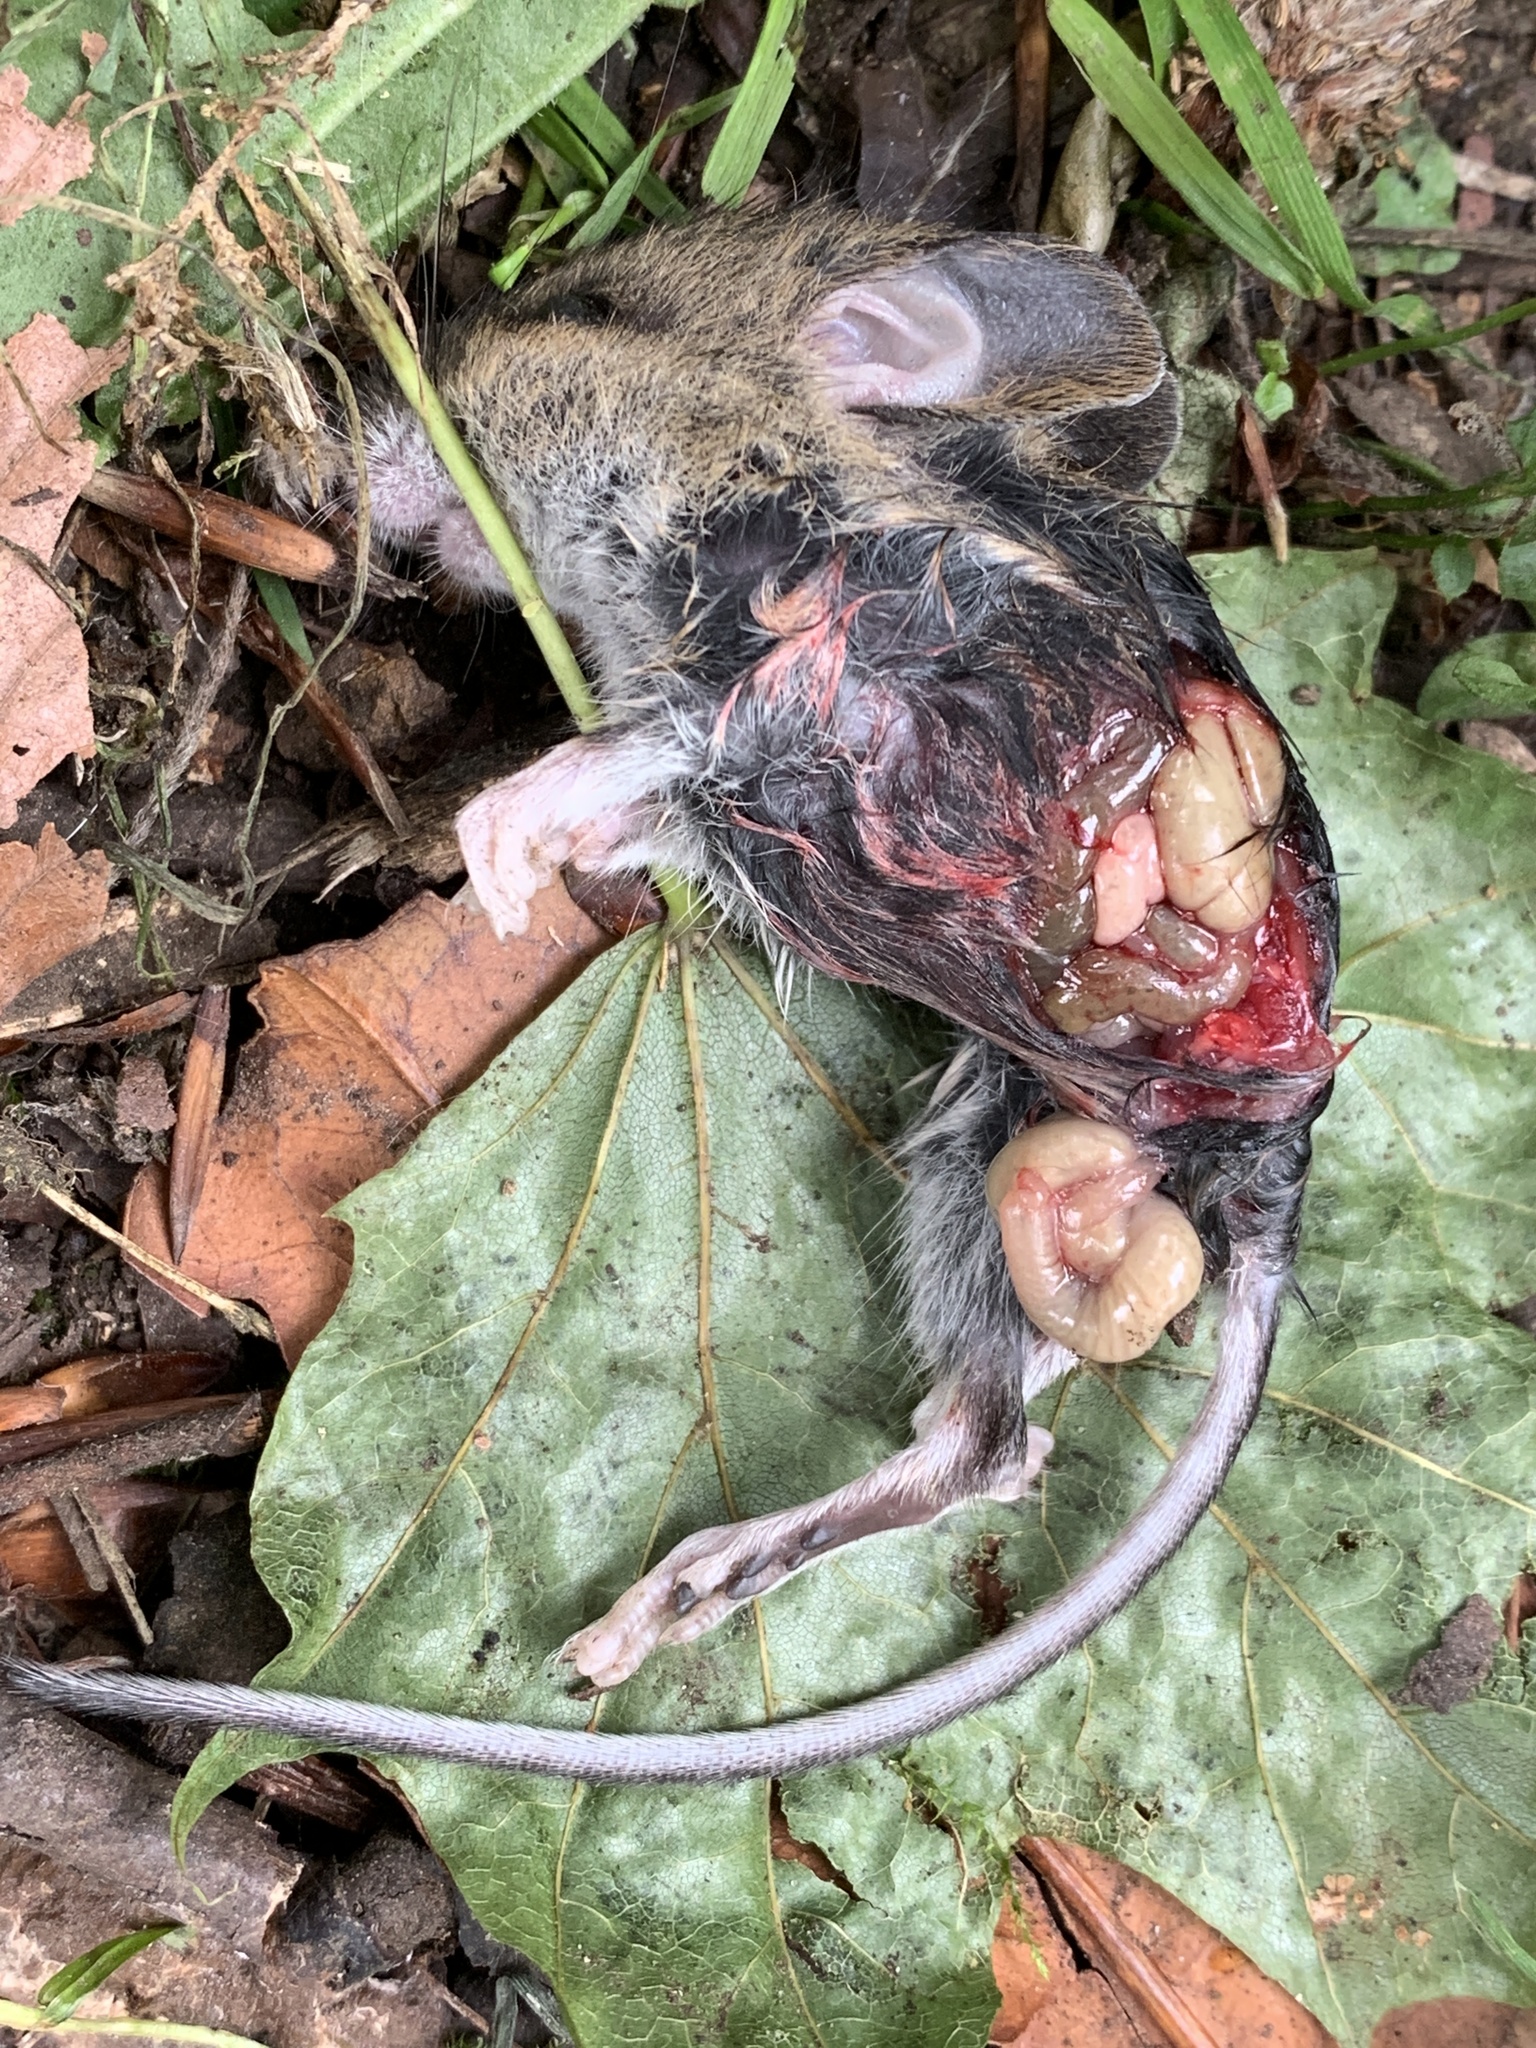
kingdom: Animalia
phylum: Chordata
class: Mammalia
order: Rodentia
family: Muridae
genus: Apodemus
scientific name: Apodemus sylvaticus
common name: Wood mouse
